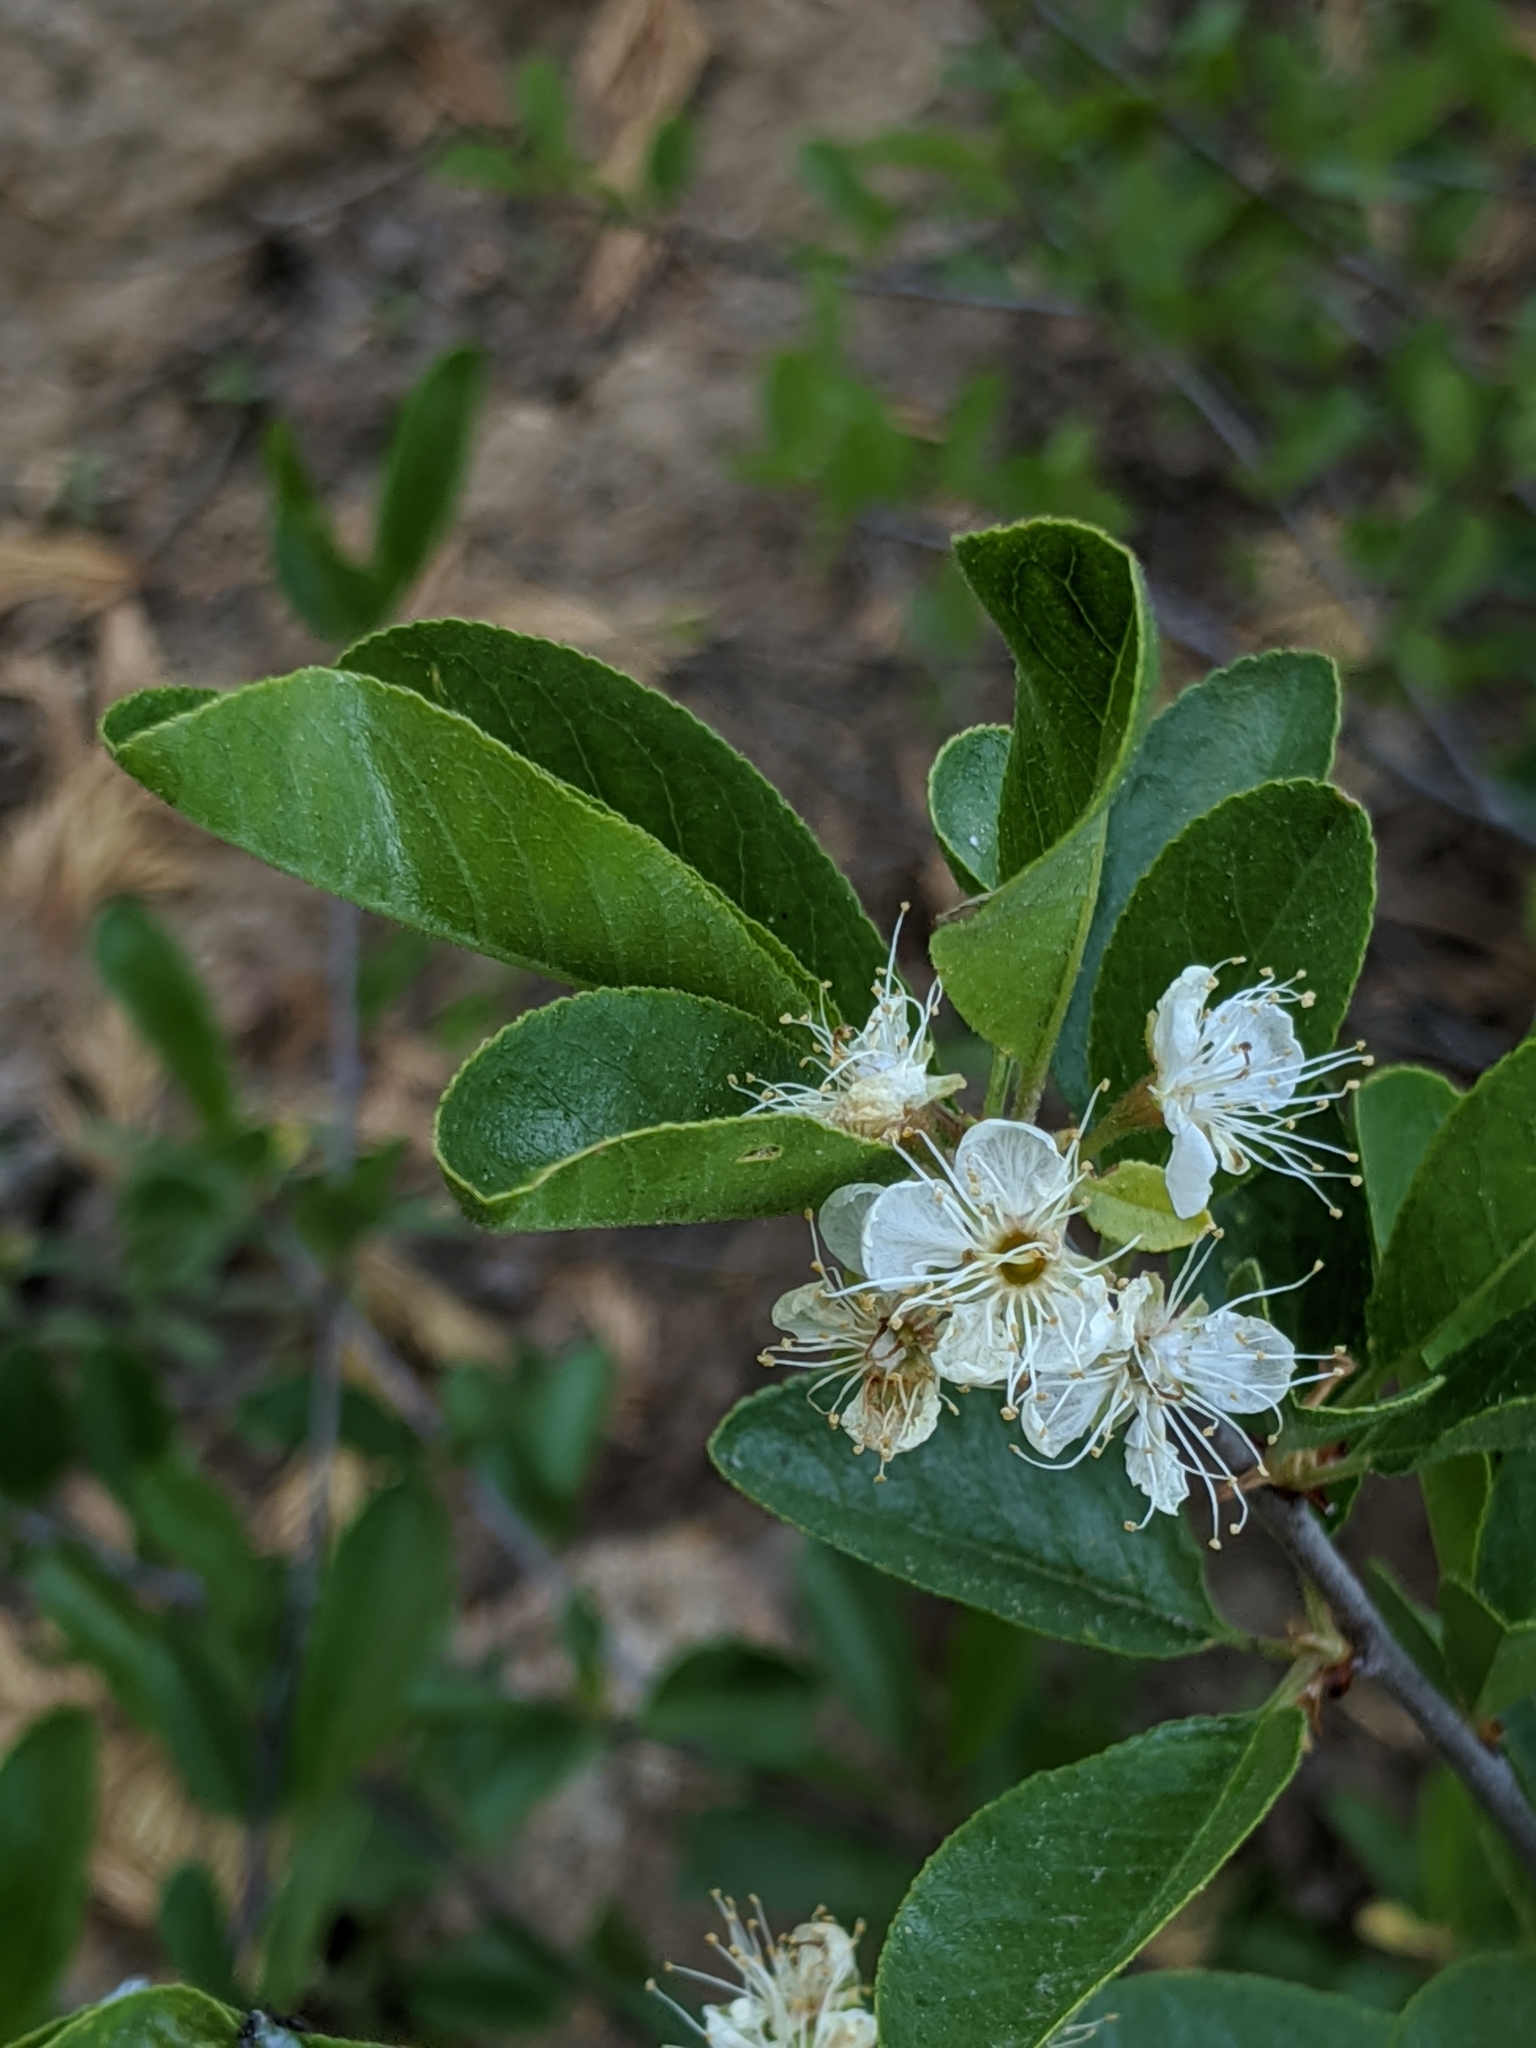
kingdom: Plantae
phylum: Tracheophyta
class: Magnoliopsida
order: Rosales
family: Rosaceae
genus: Prunus
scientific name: Prunus emarginata
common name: Bitter cherry
